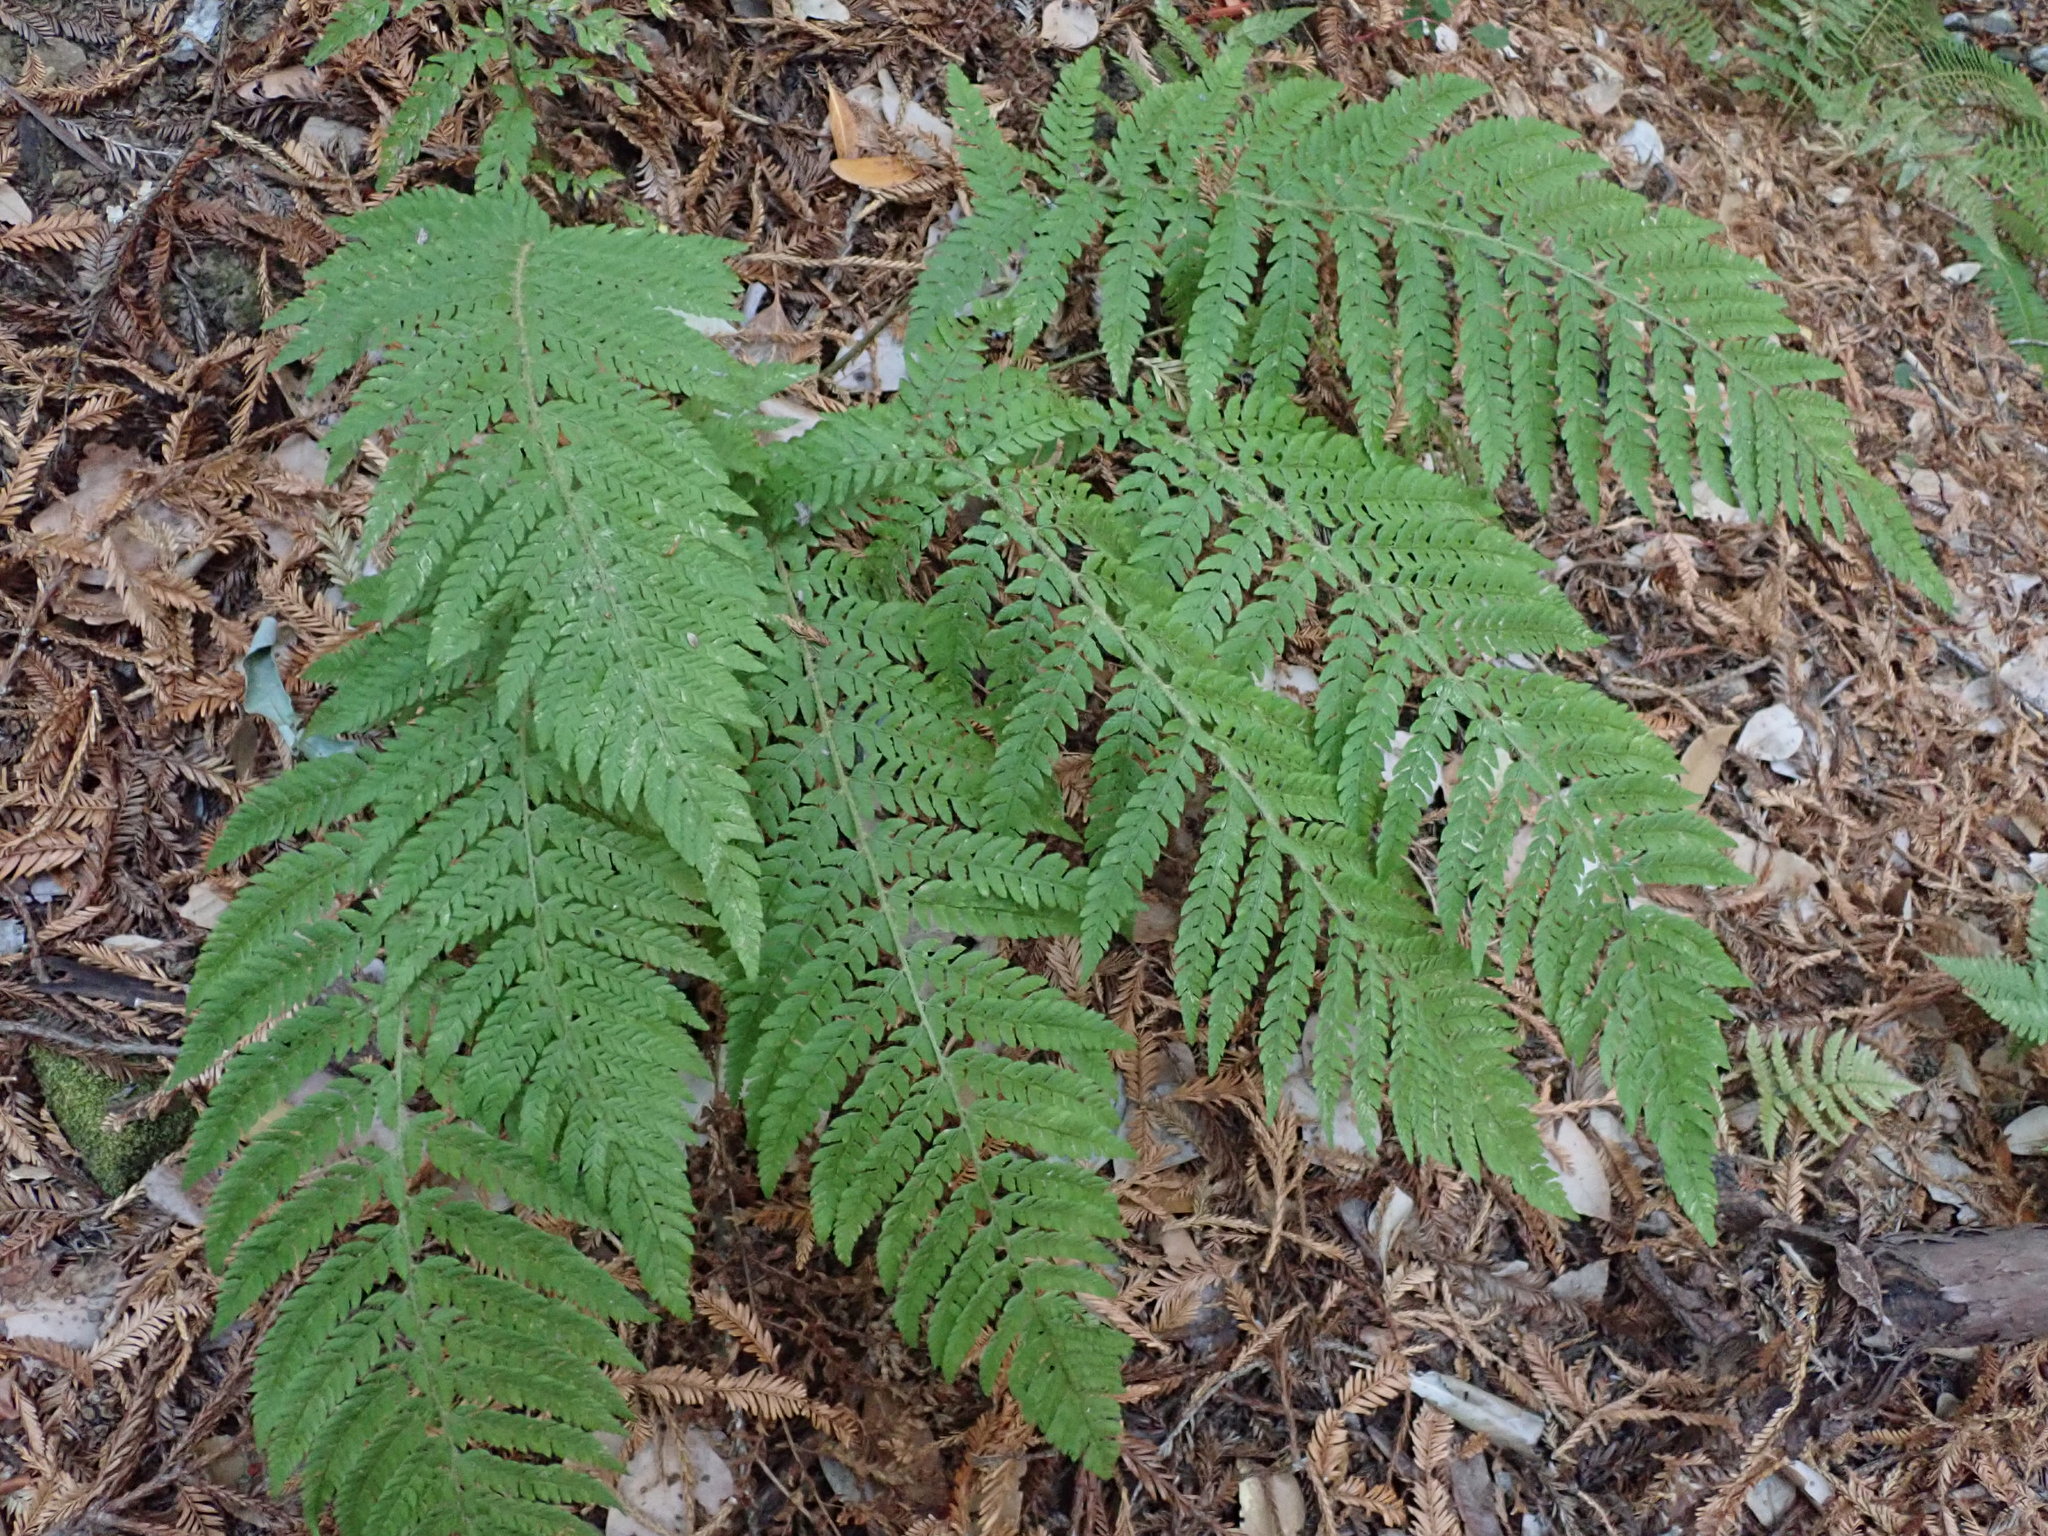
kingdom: Plantae
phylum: Tracheophyta
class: Polypodiopsida
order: Polypodiales
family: Dryopteridaceae
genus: Polystichum
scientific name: Polystichum dudleyi
